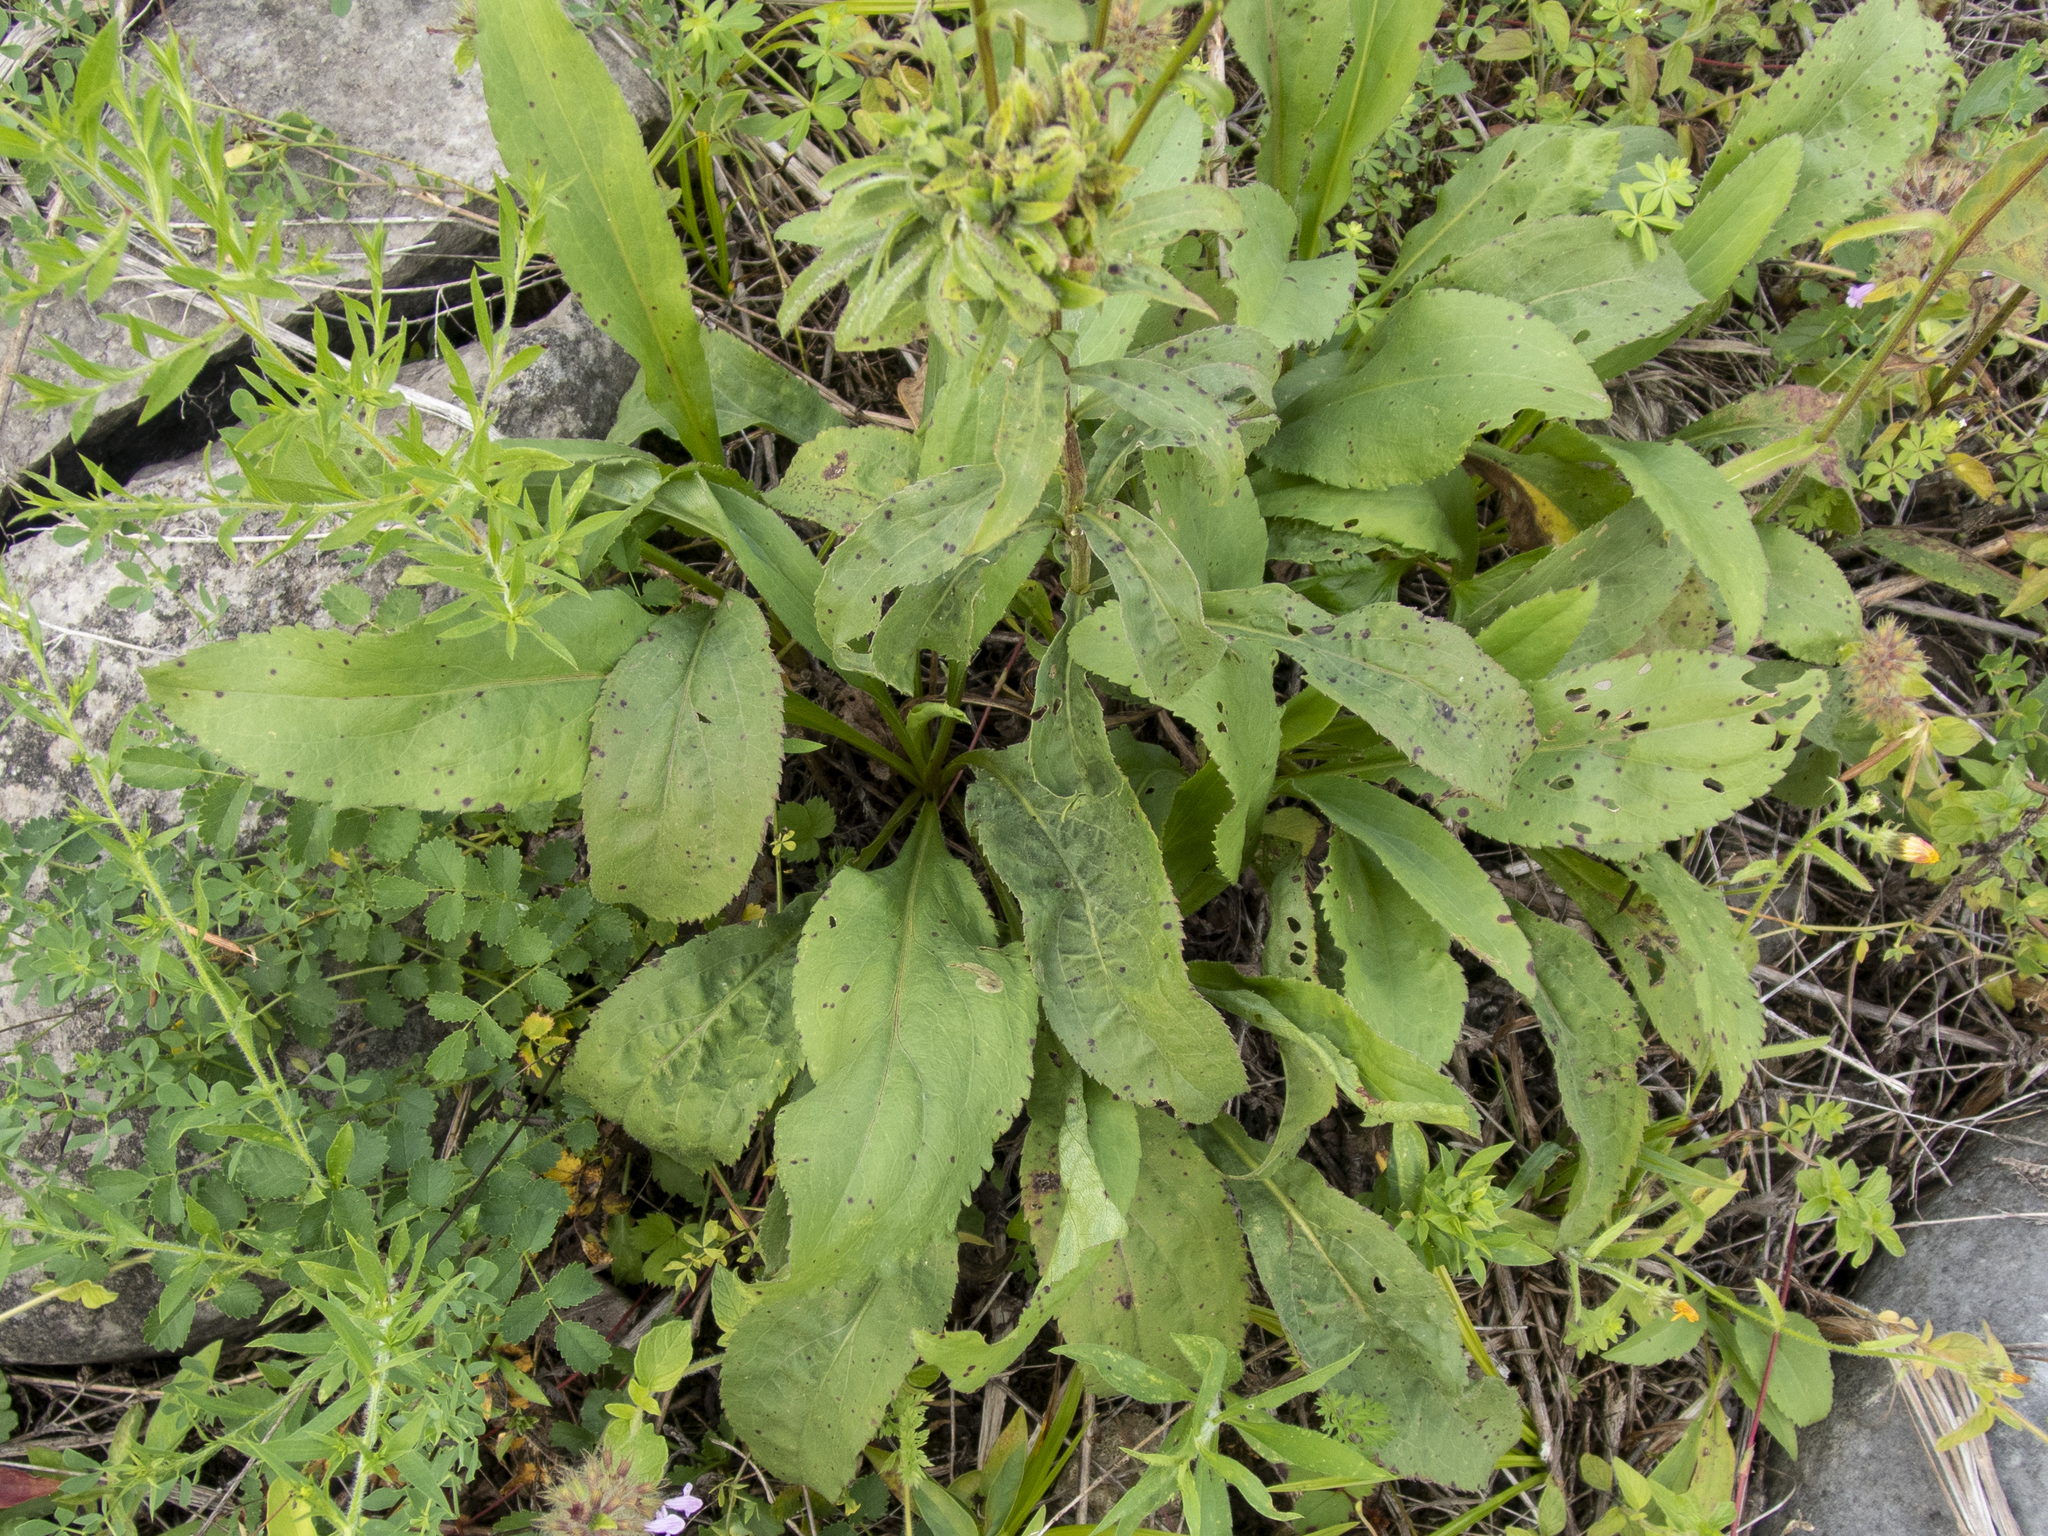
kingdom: Plantae
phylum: Tracheophyta
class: Magnoliopsida
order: Asterales
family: Asteraceae
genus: Solidago
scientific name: Solidago juncea
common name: Early goldenrod
